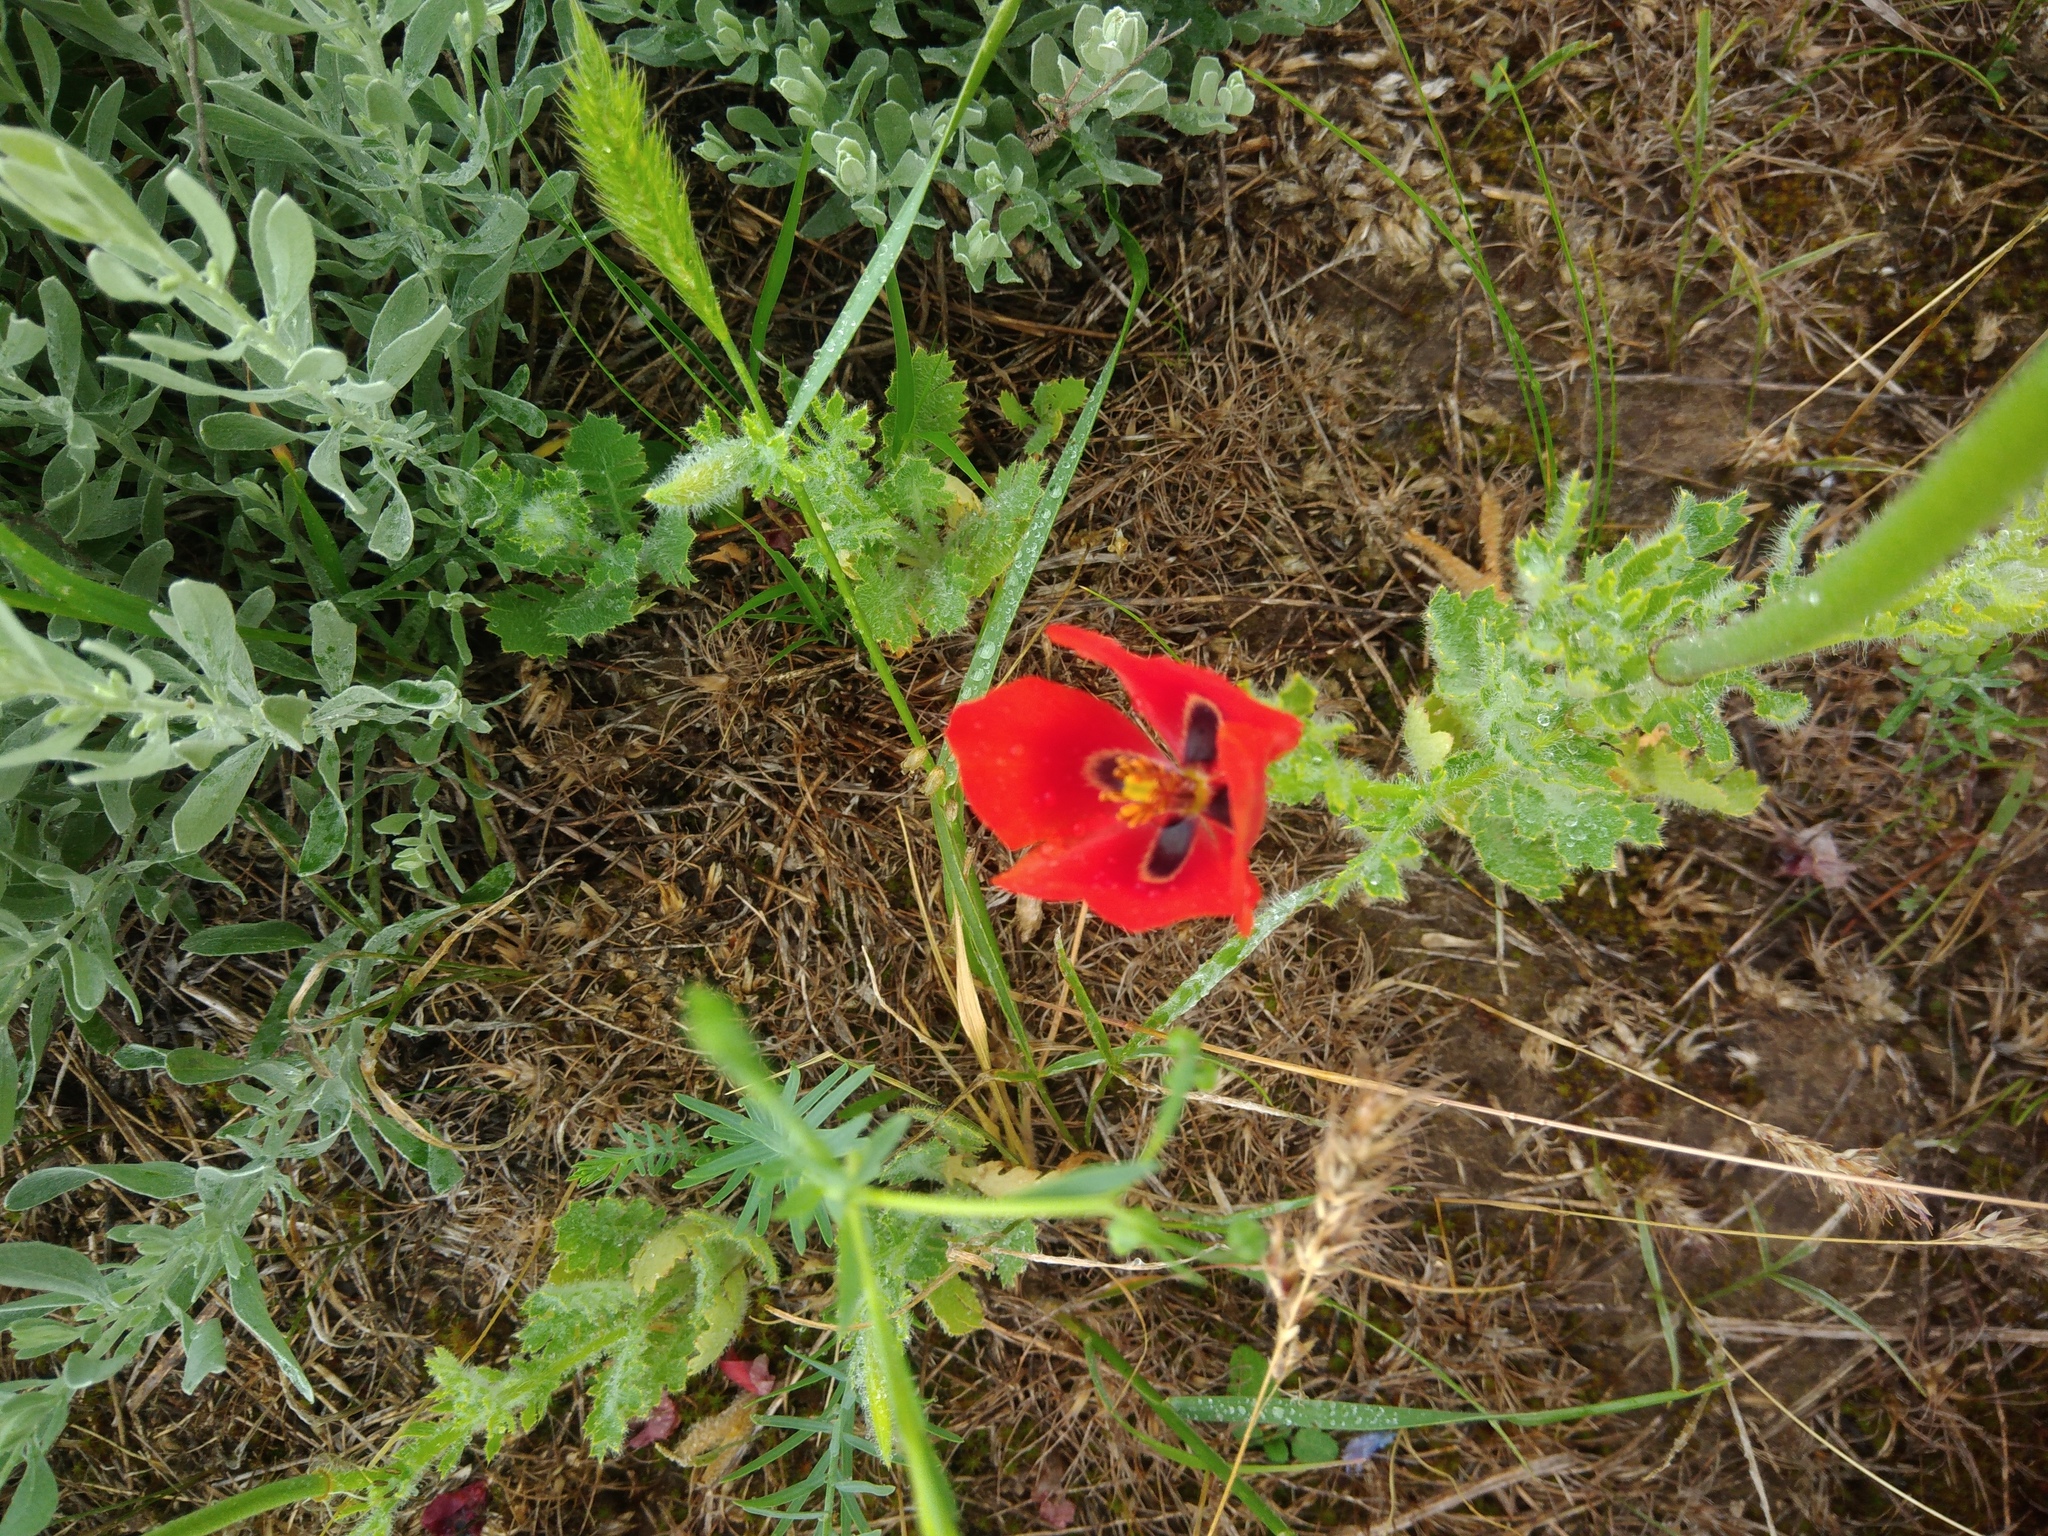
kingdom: Plantae
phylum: Tracheophyta
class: Magnoliopsida
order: Ranunculales
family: Papaveraceae
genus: Glaucium
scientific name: Glaucium corniculatum
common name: Red horned-poppy
